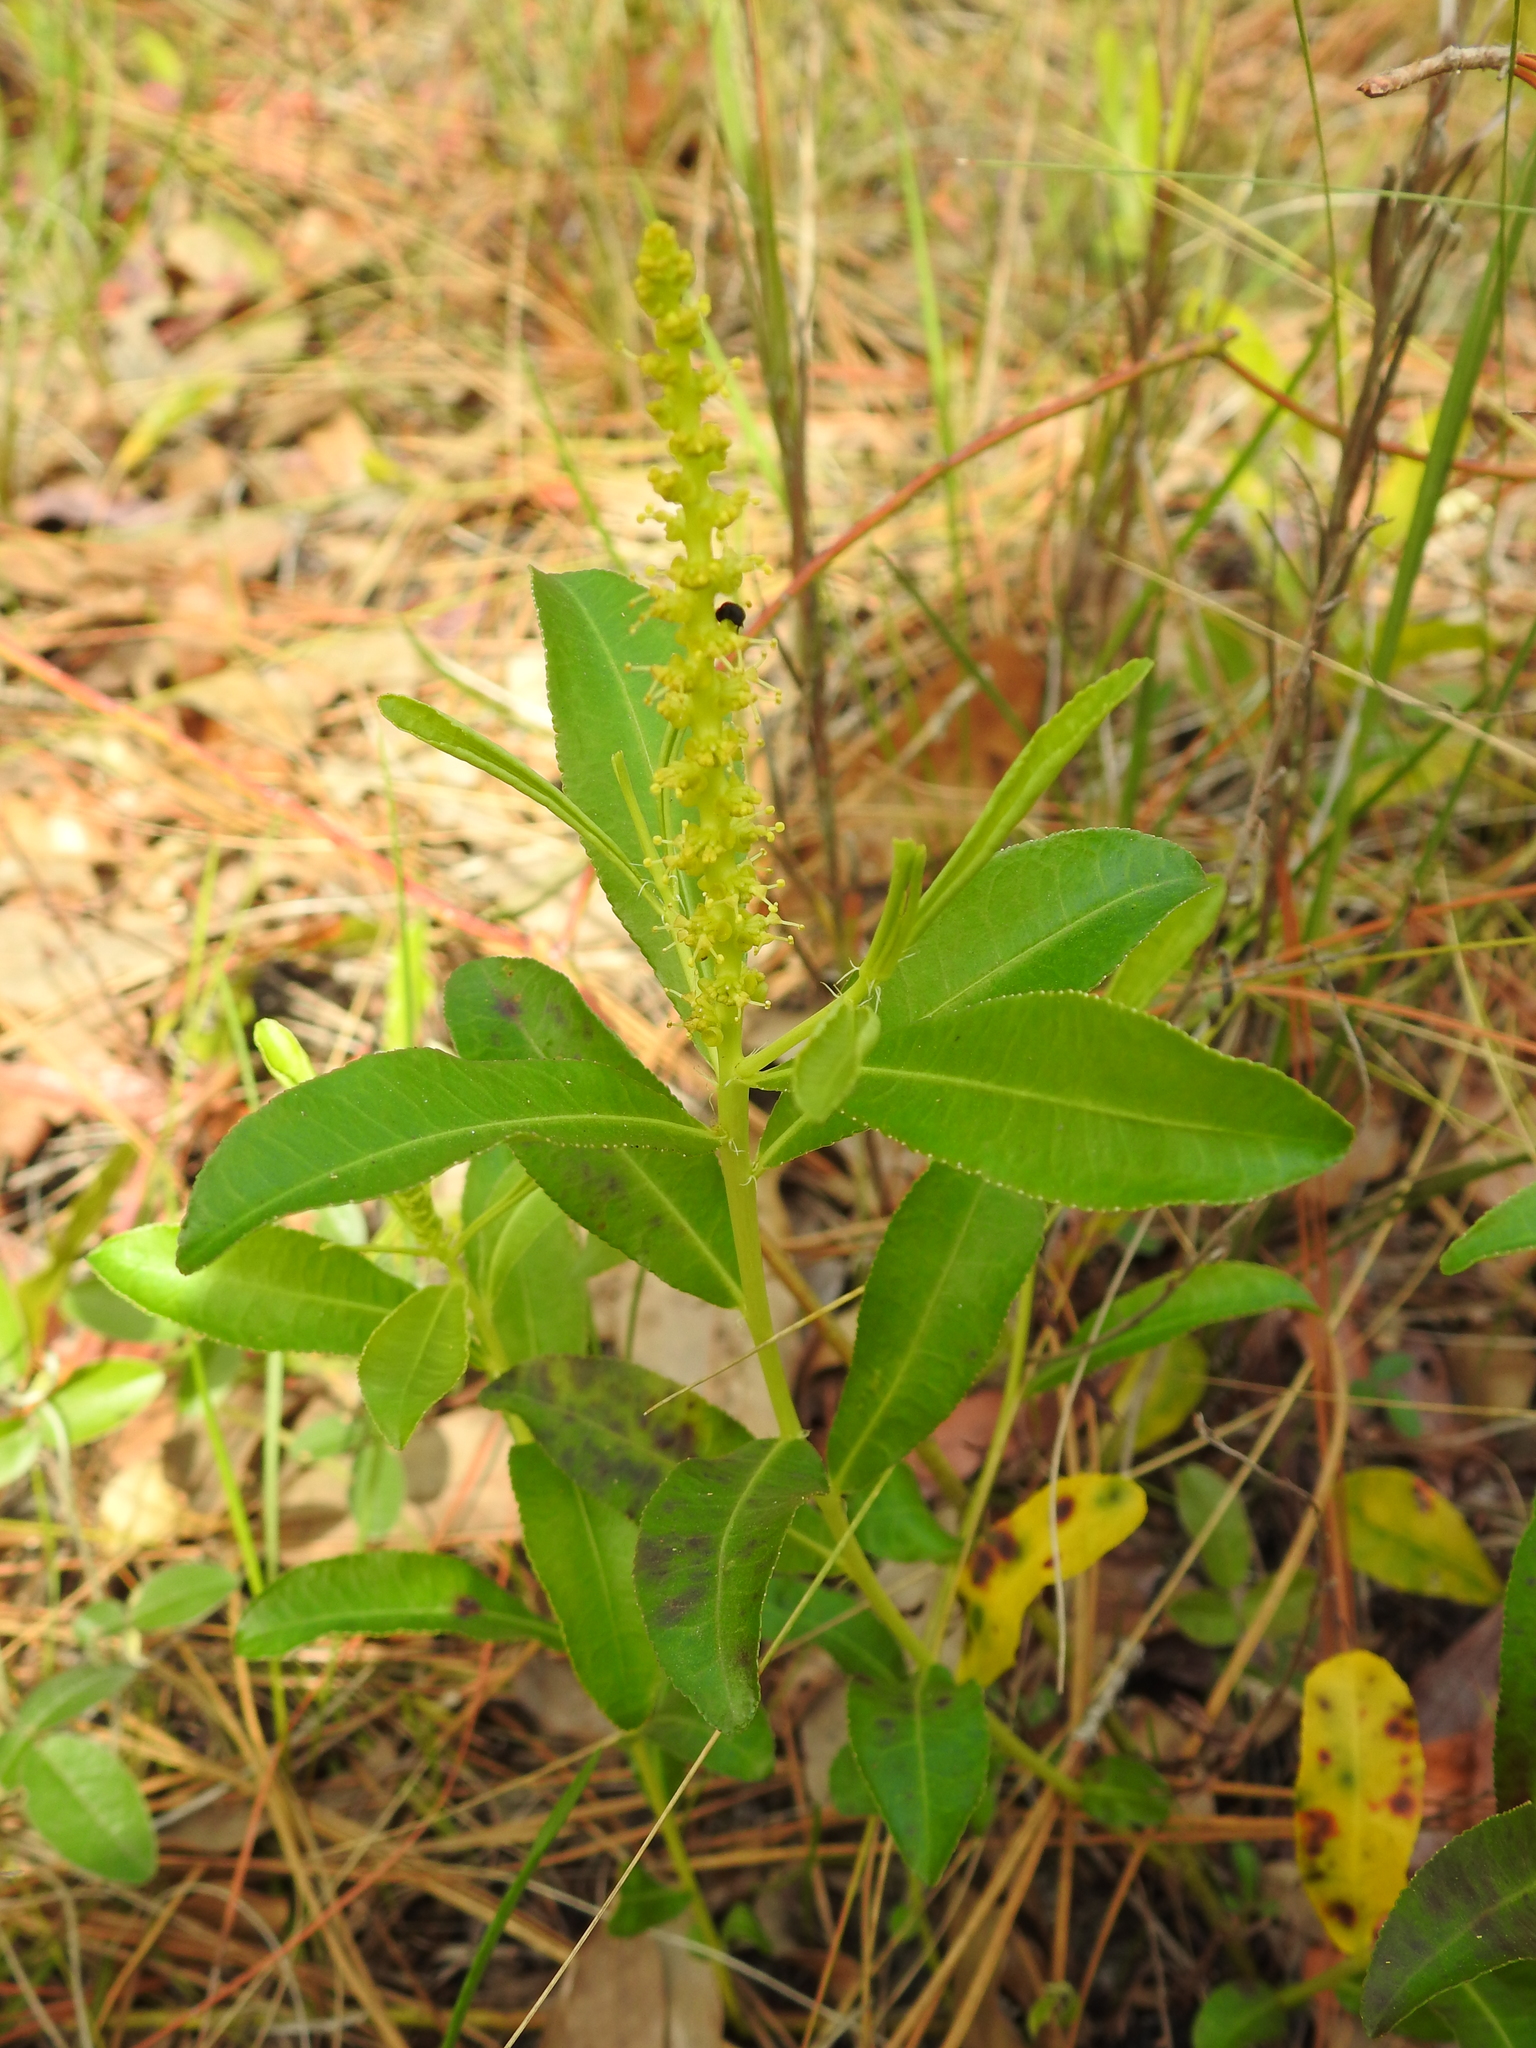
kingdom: Plantae
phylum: Tracheophyta
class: Magnoliopsida
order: Malpighiales
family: Euphorbiaceae
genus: Stillingia
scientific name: Stillingia sylvatica
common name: Queen's-delight
